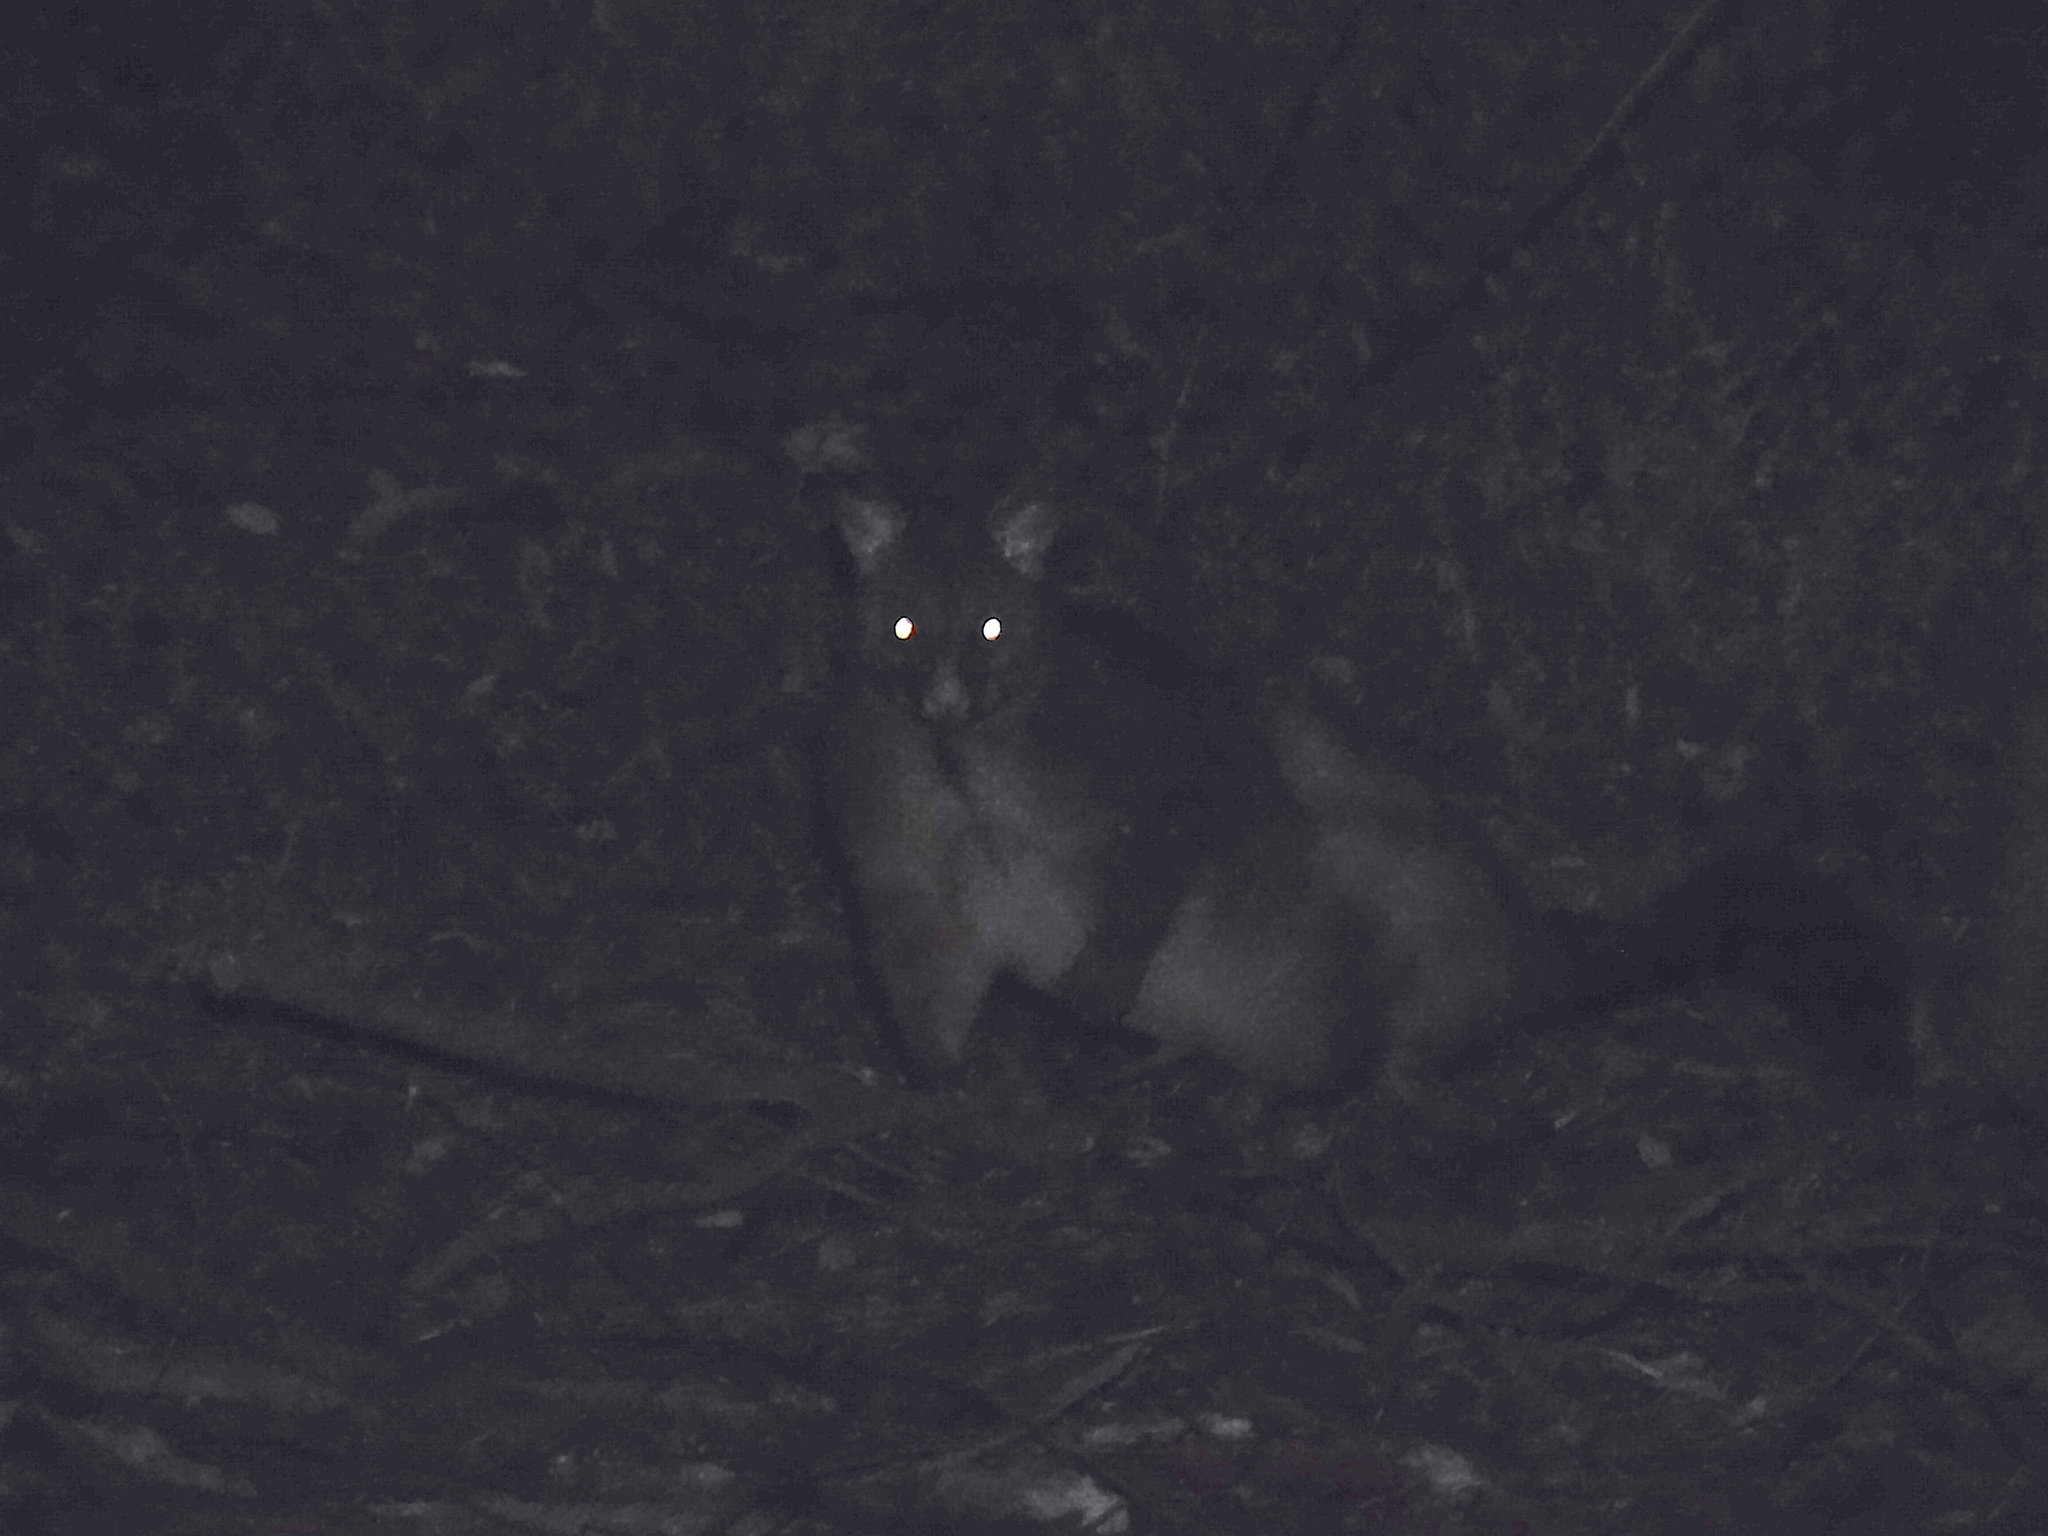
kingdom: Animalia
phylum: Chordata
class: Mammalia
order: Diprotodontia
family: Phalangeridae
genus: Trichosurus
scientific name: Trichosurus vulpecula
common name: Common brushtail
